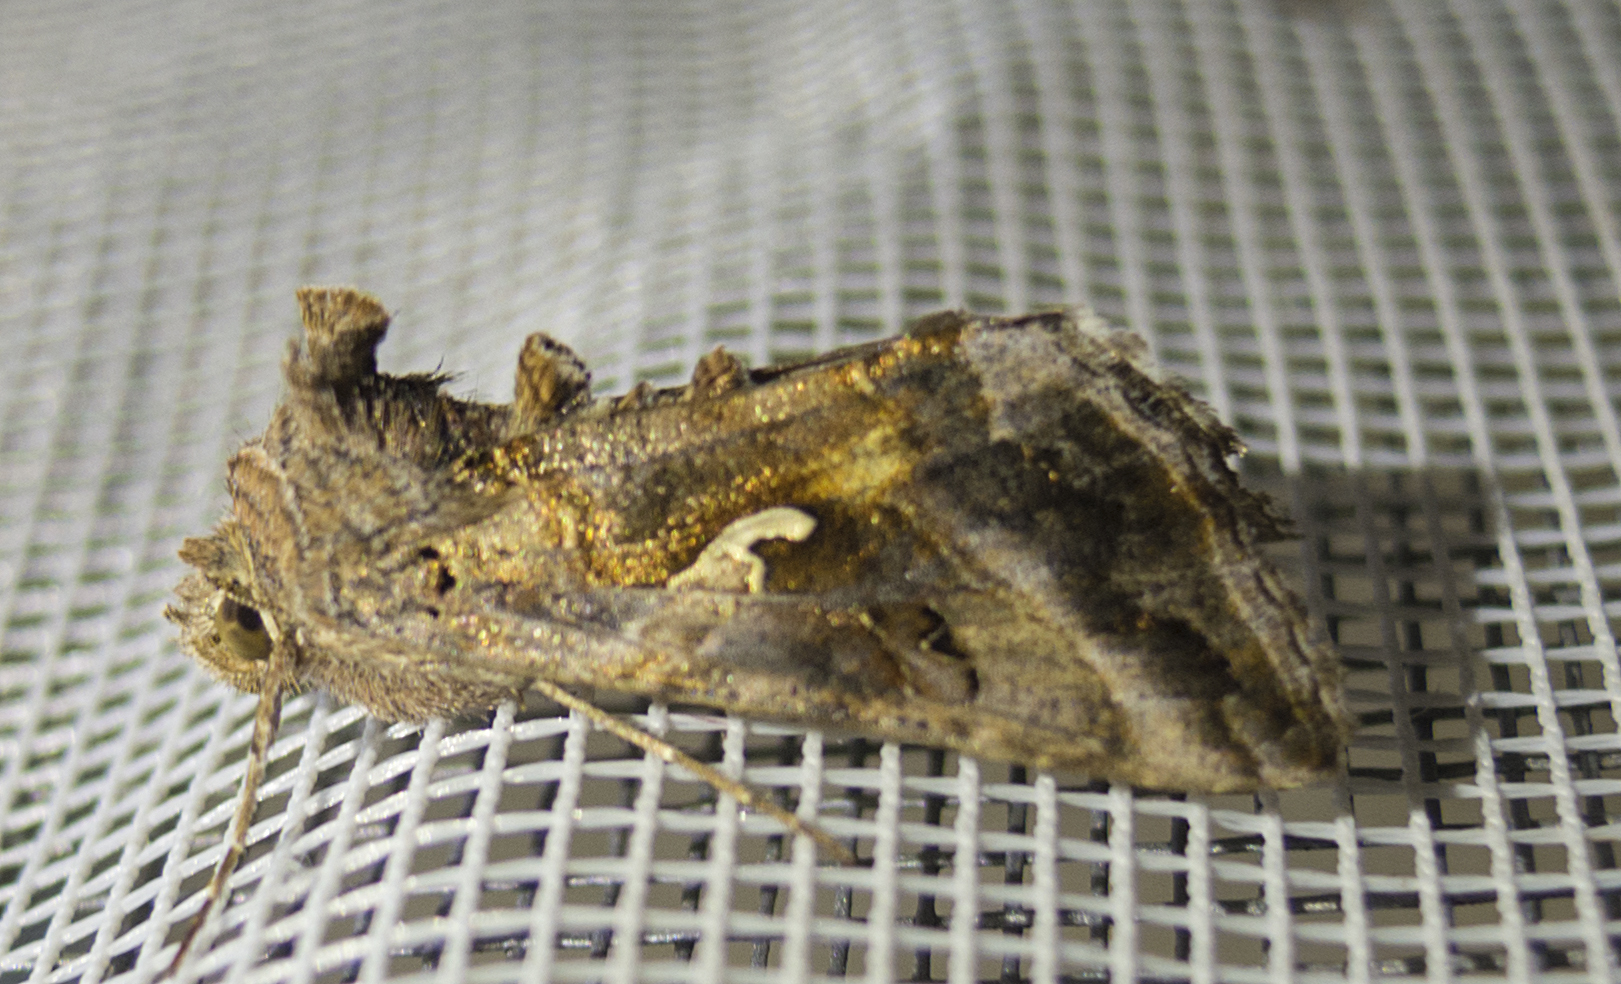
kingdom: Animalia
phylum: Arthropoda
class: Insecta
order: Lepidoptera
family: Noctuidae
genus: Autographa
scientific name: Autographa gamma
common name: Silver y
